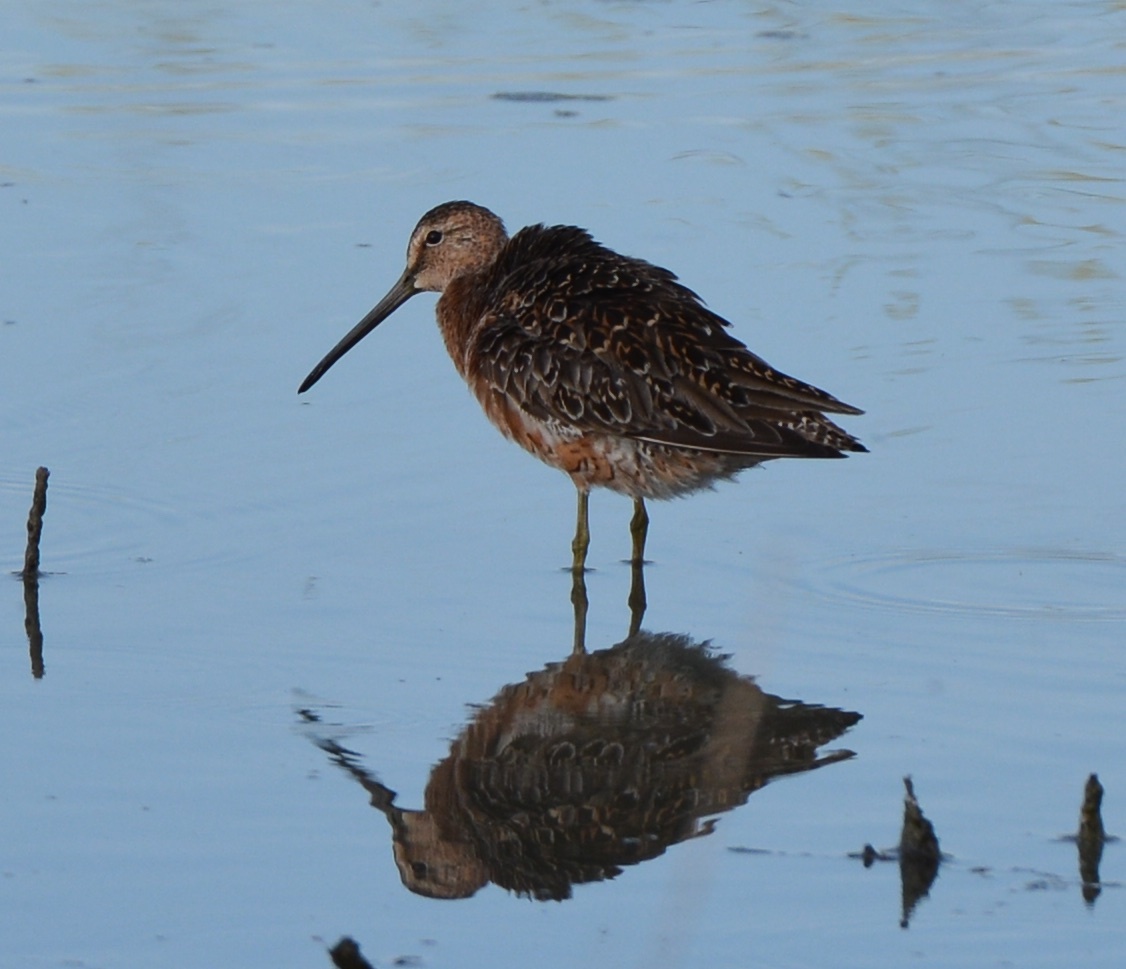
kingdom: Animalia
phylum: Chordata
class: Aves
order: Charadriiformes
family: Scolopacidae
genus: Limnodromus
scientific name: Limnodromus scolopaceus
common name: Long-billed dowitcher
